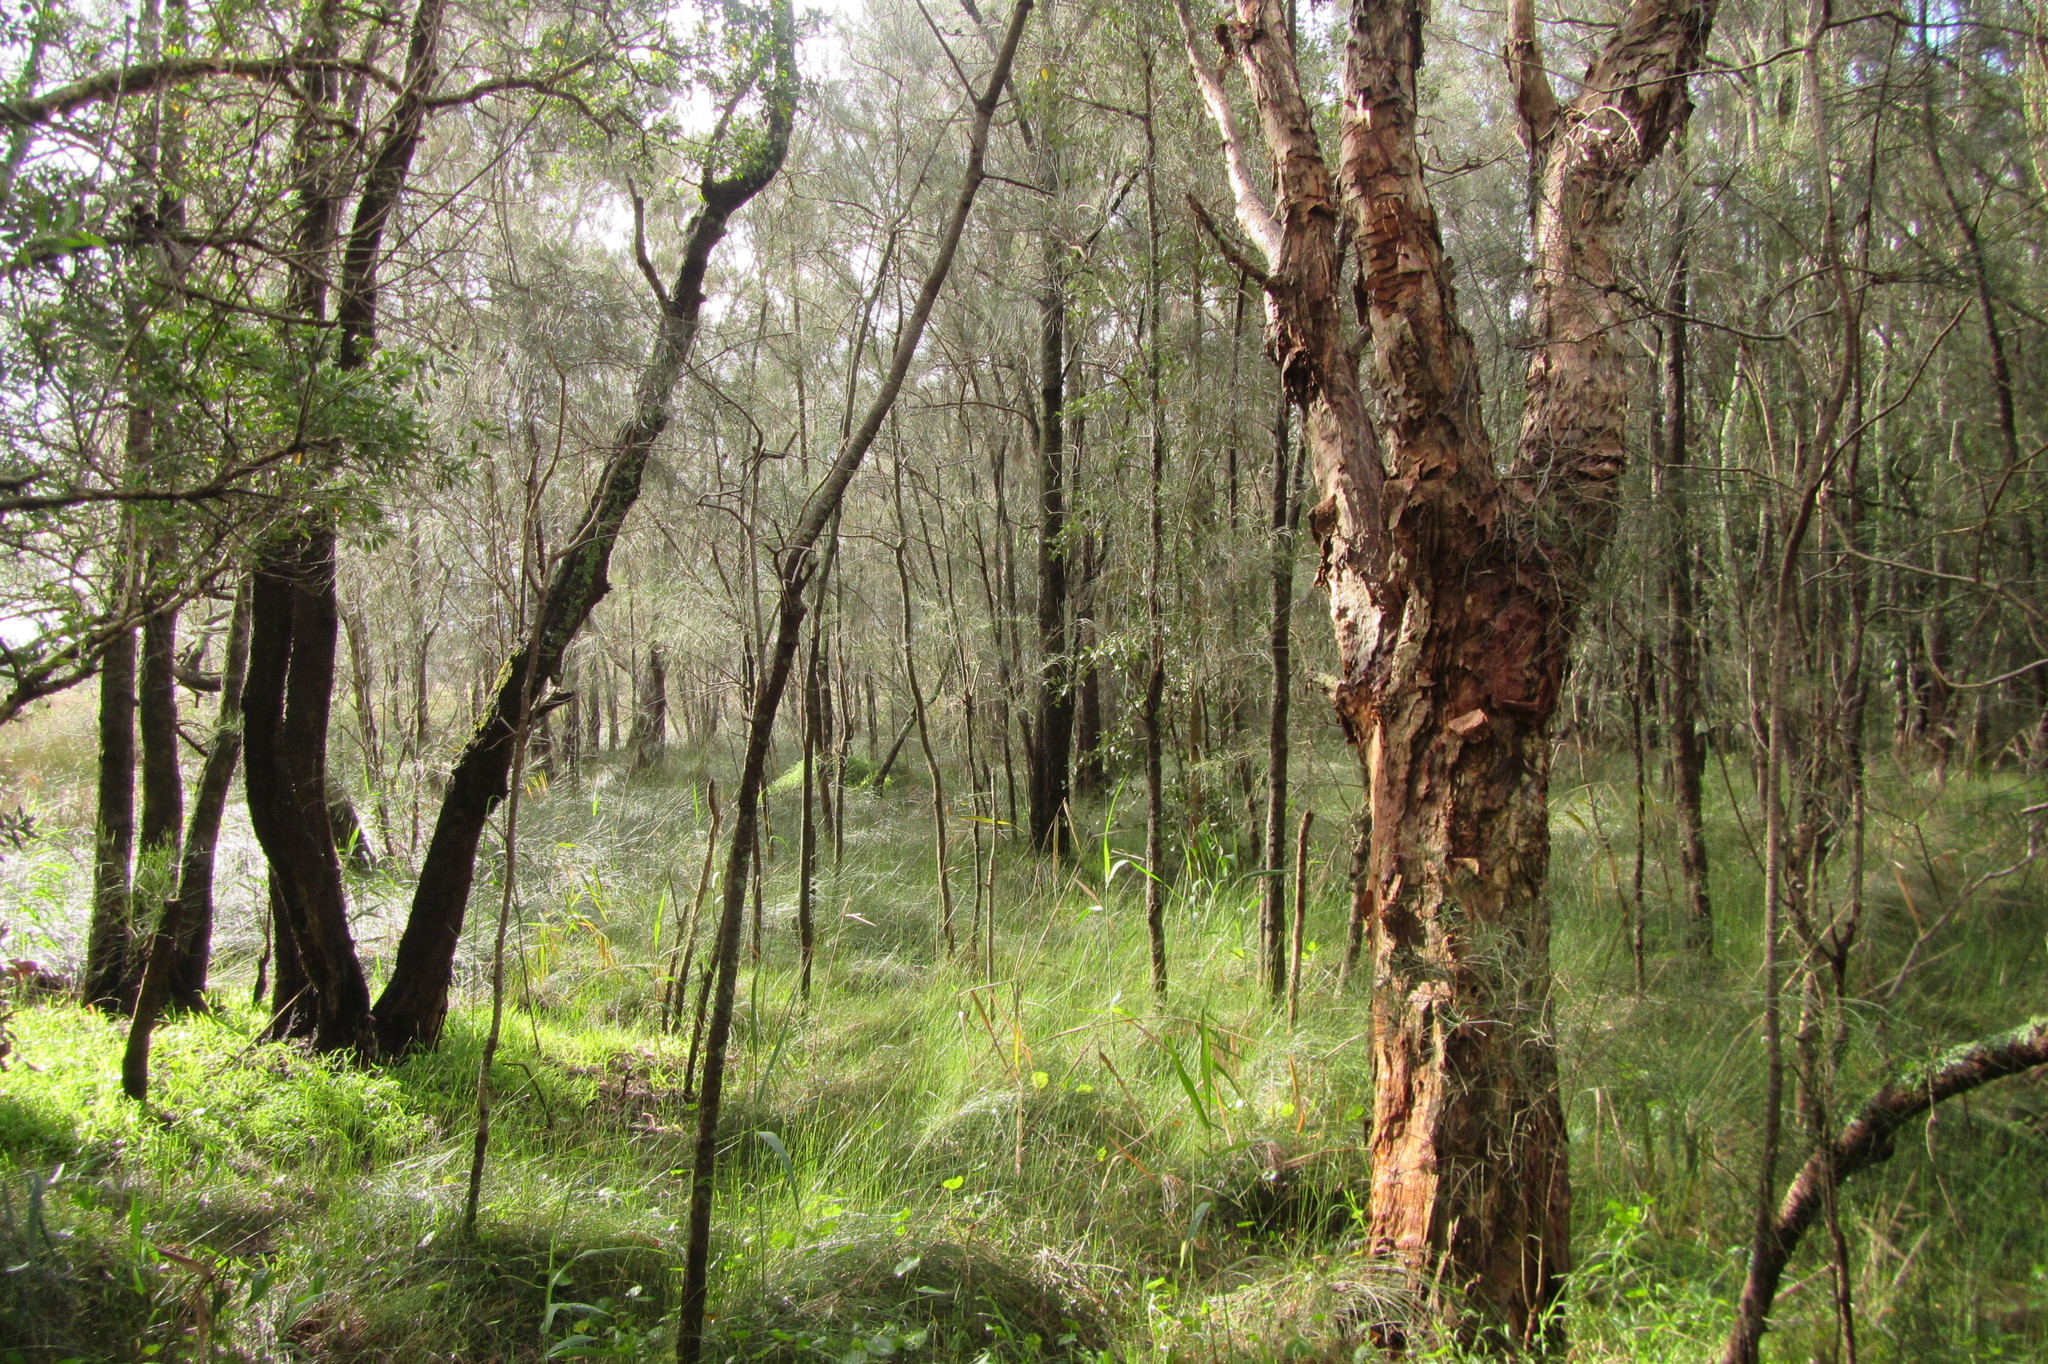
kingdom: Plantae
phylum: Tracheophyta
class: Magnoliopsida
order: Fagales
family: Casuarinaceae
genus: Casuarina
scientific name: Casuarina glauca
